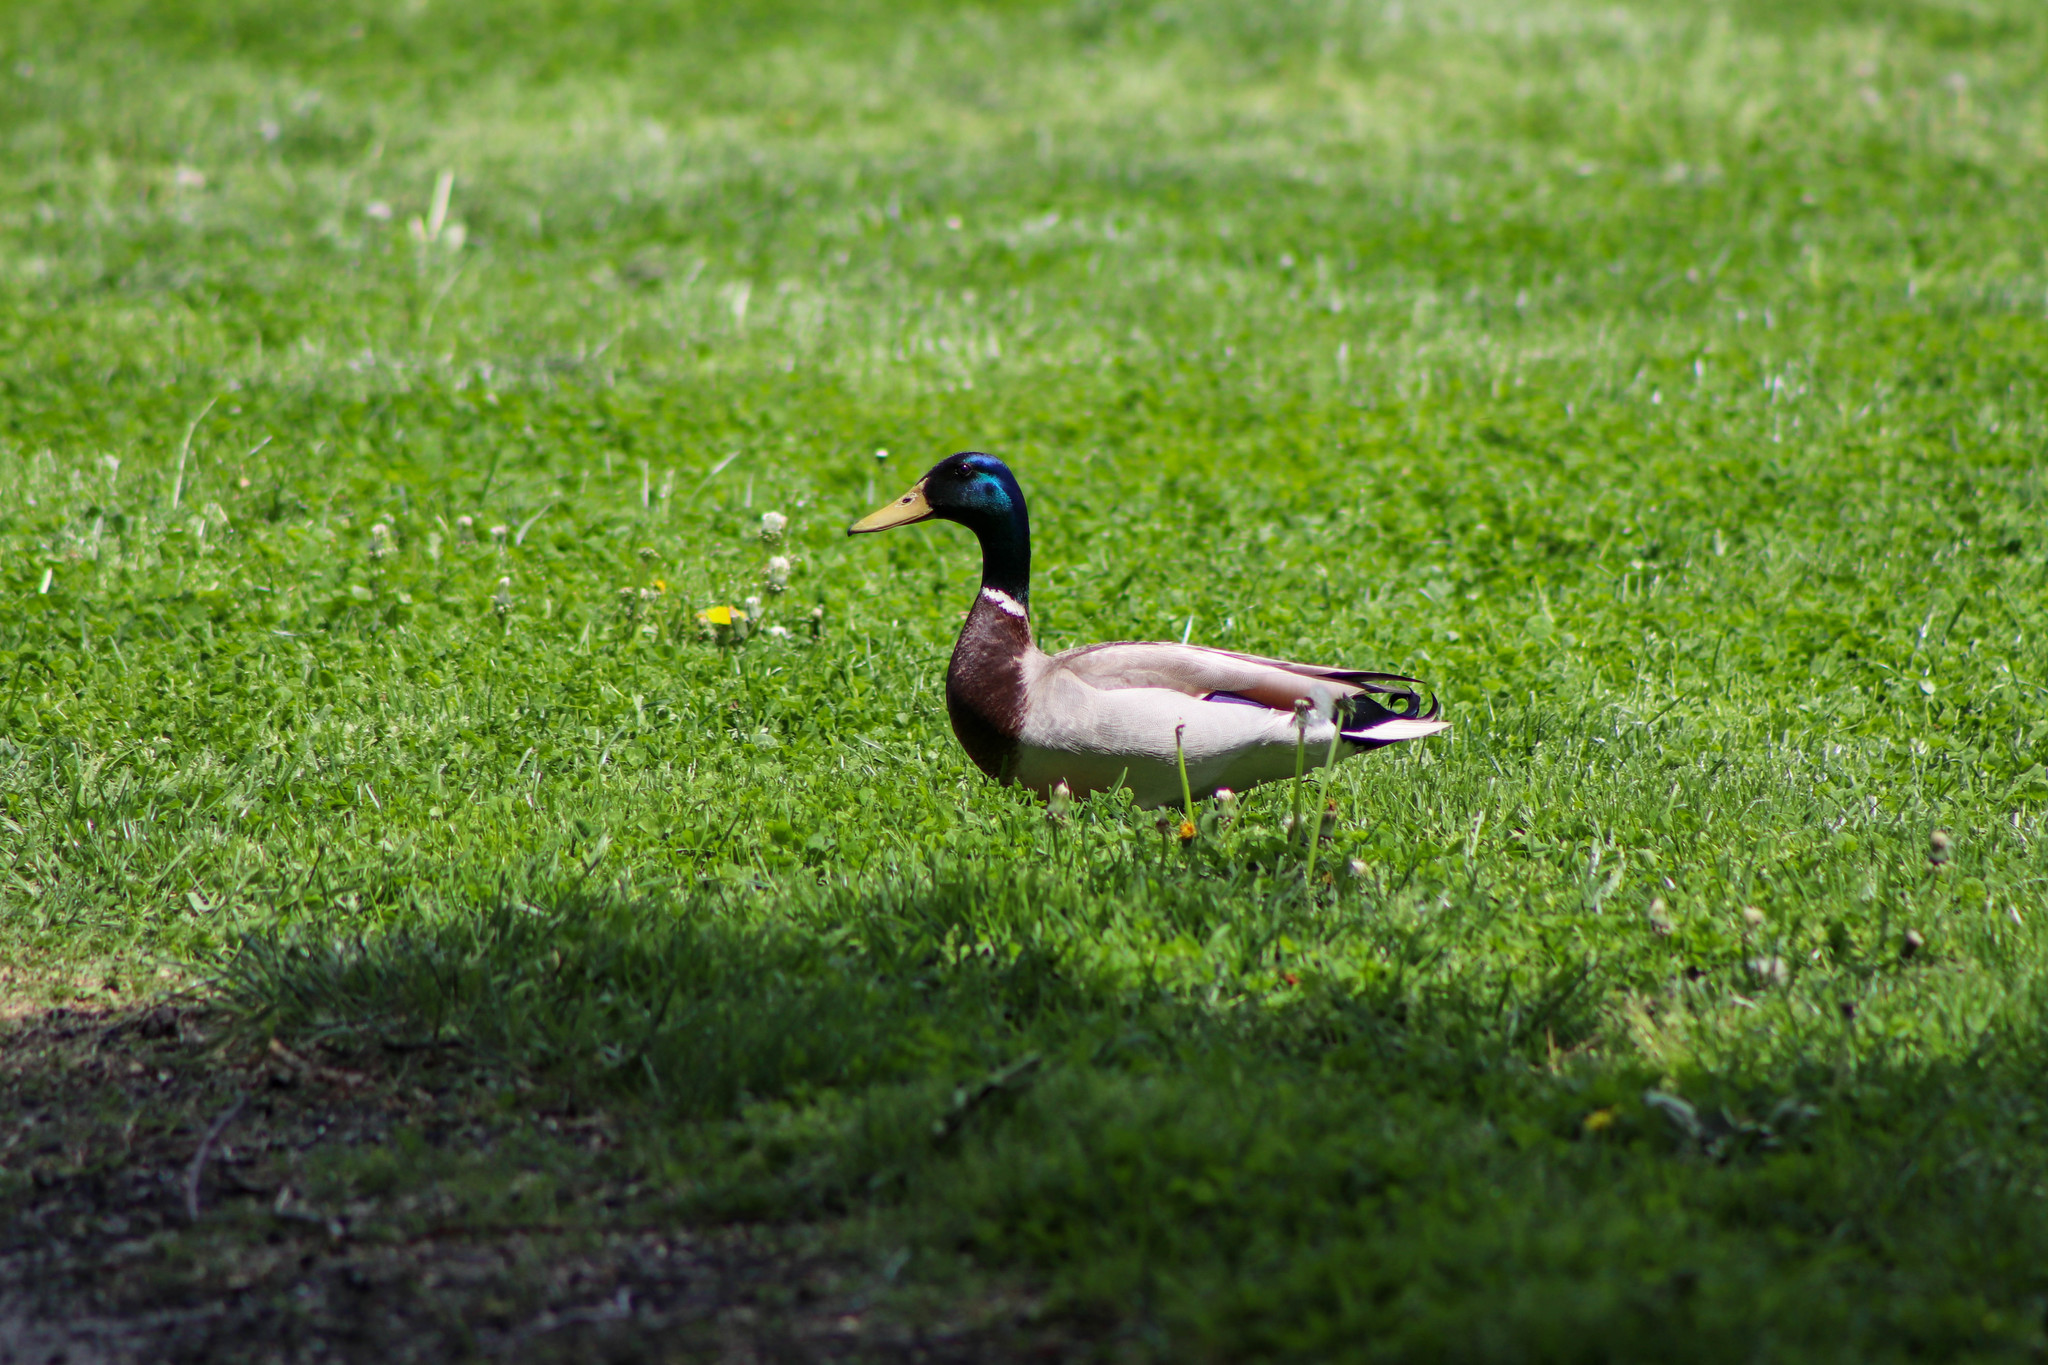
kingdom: Animalia
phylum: Chordata
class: Aves
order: Anseriformes
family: Anatidae
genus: Anas
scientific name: Anas platyrhynchos
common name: Mallard
